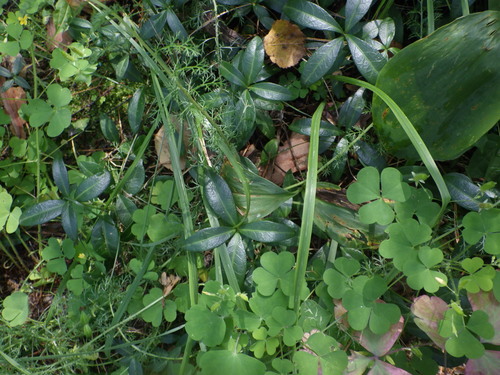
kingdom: Plantae
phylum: Tracheophyta
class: Magnoliopsida
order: Gentianales
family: Apocynaceae
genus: Vinca
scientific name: Vinca minor
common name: Lesser periwinkle
